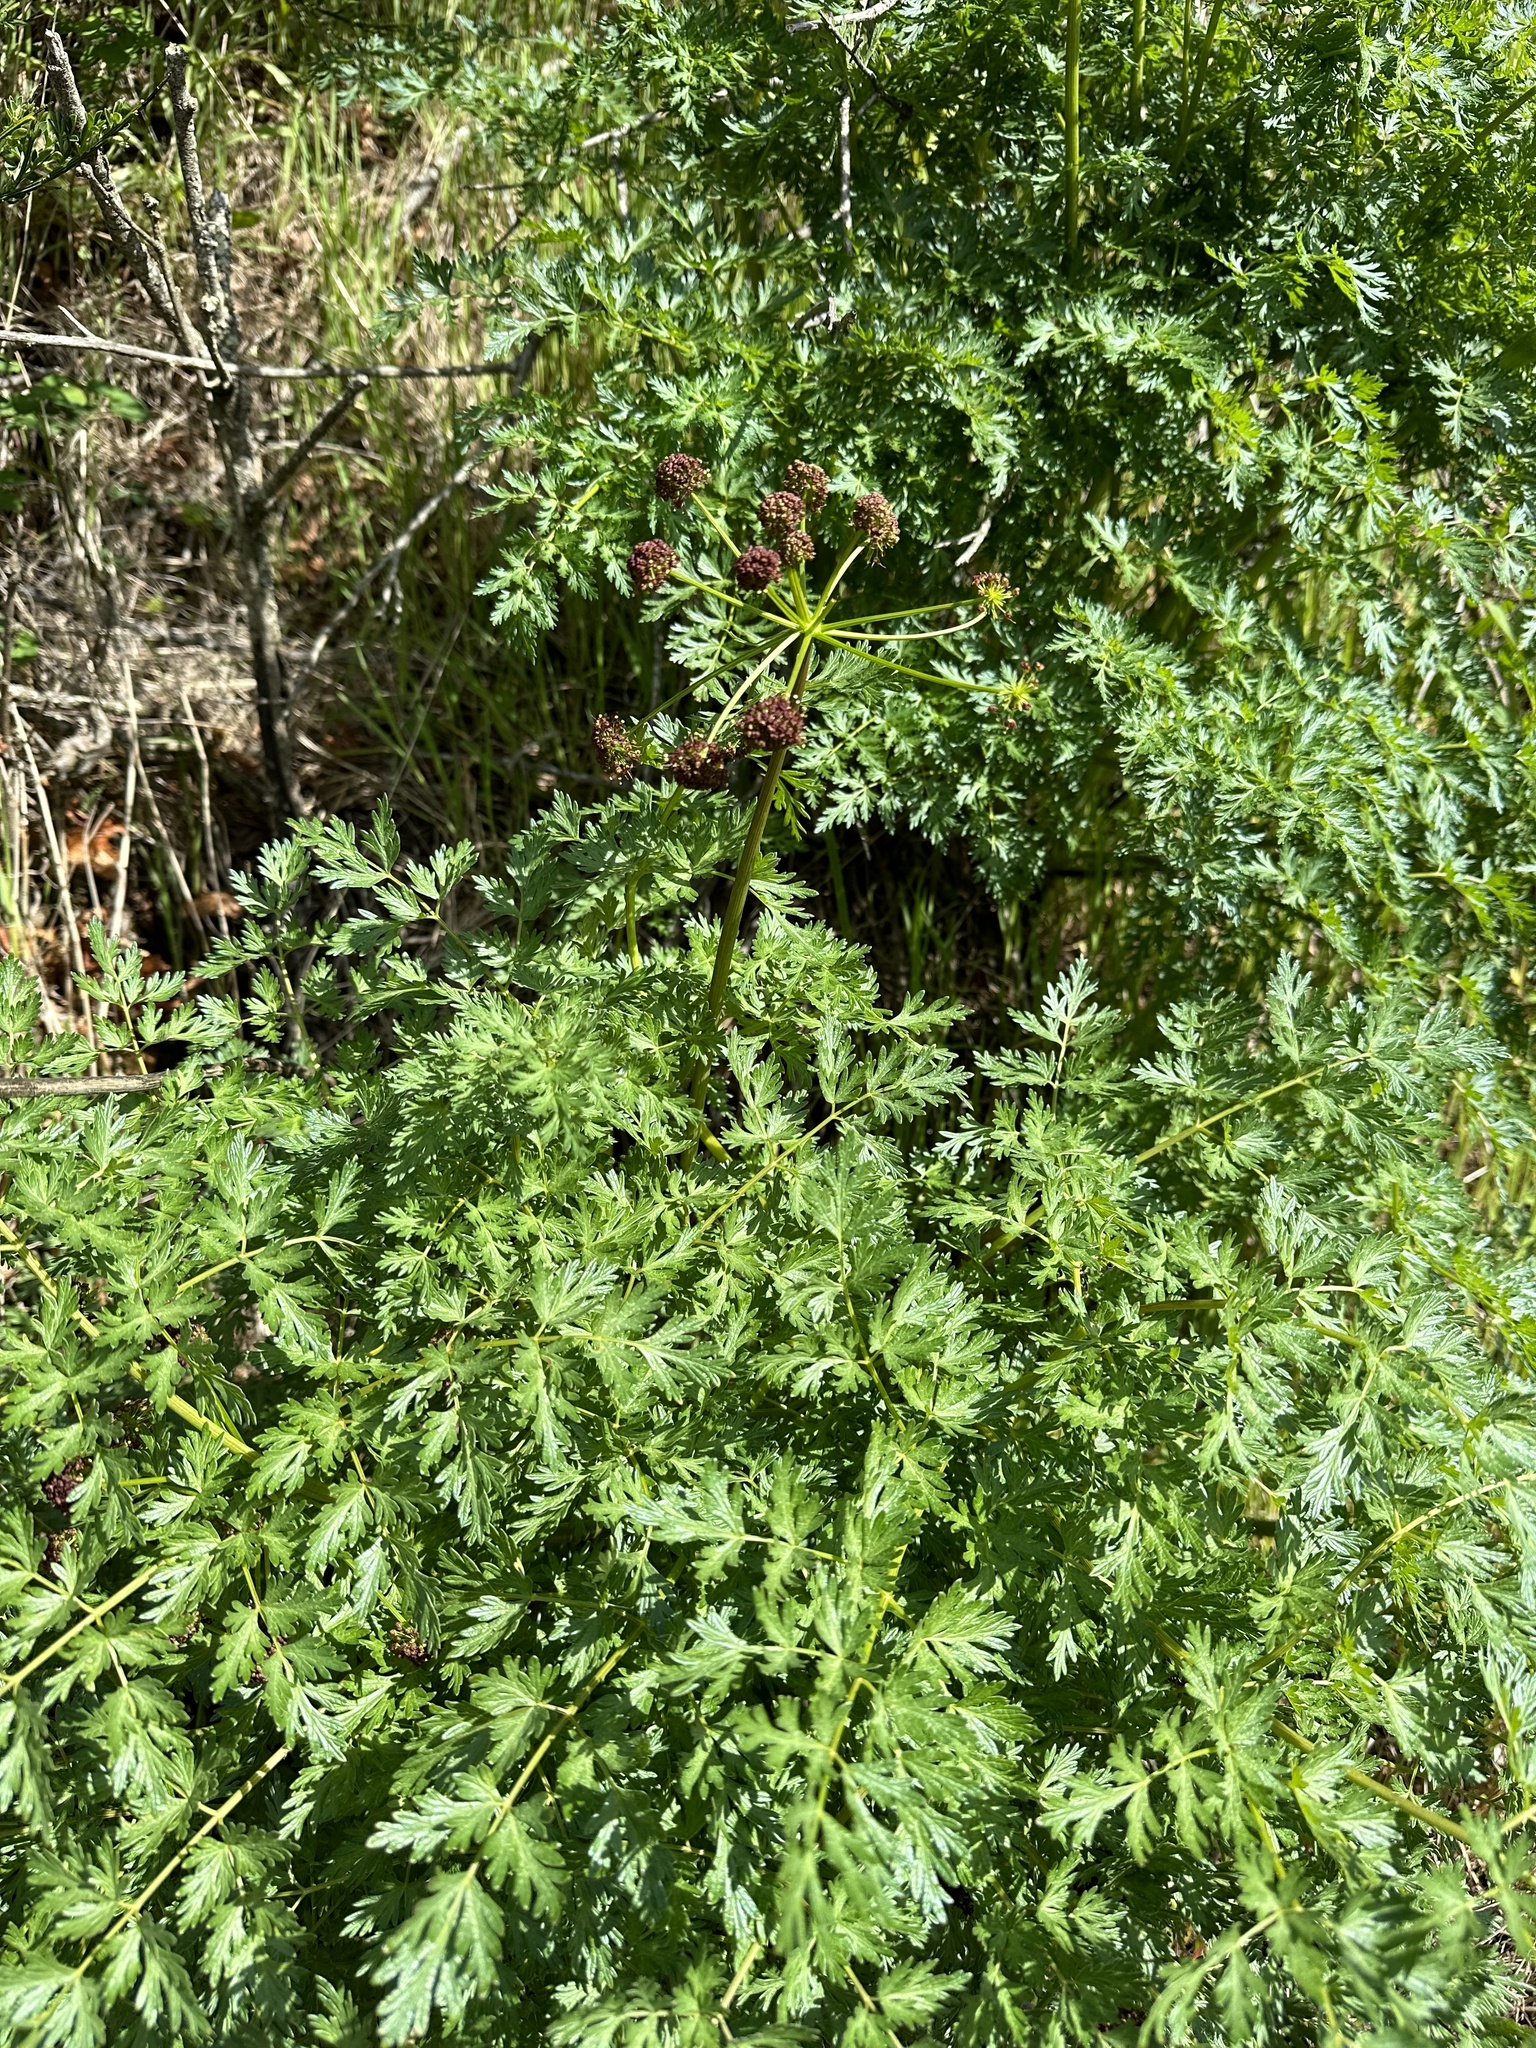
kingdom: Plantae
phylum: Tracheophyta
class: Magnoliopsida
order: Apiales
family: Apiaceae
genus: Lomatium
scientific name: Lomatium dissectum
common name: Lomatium
